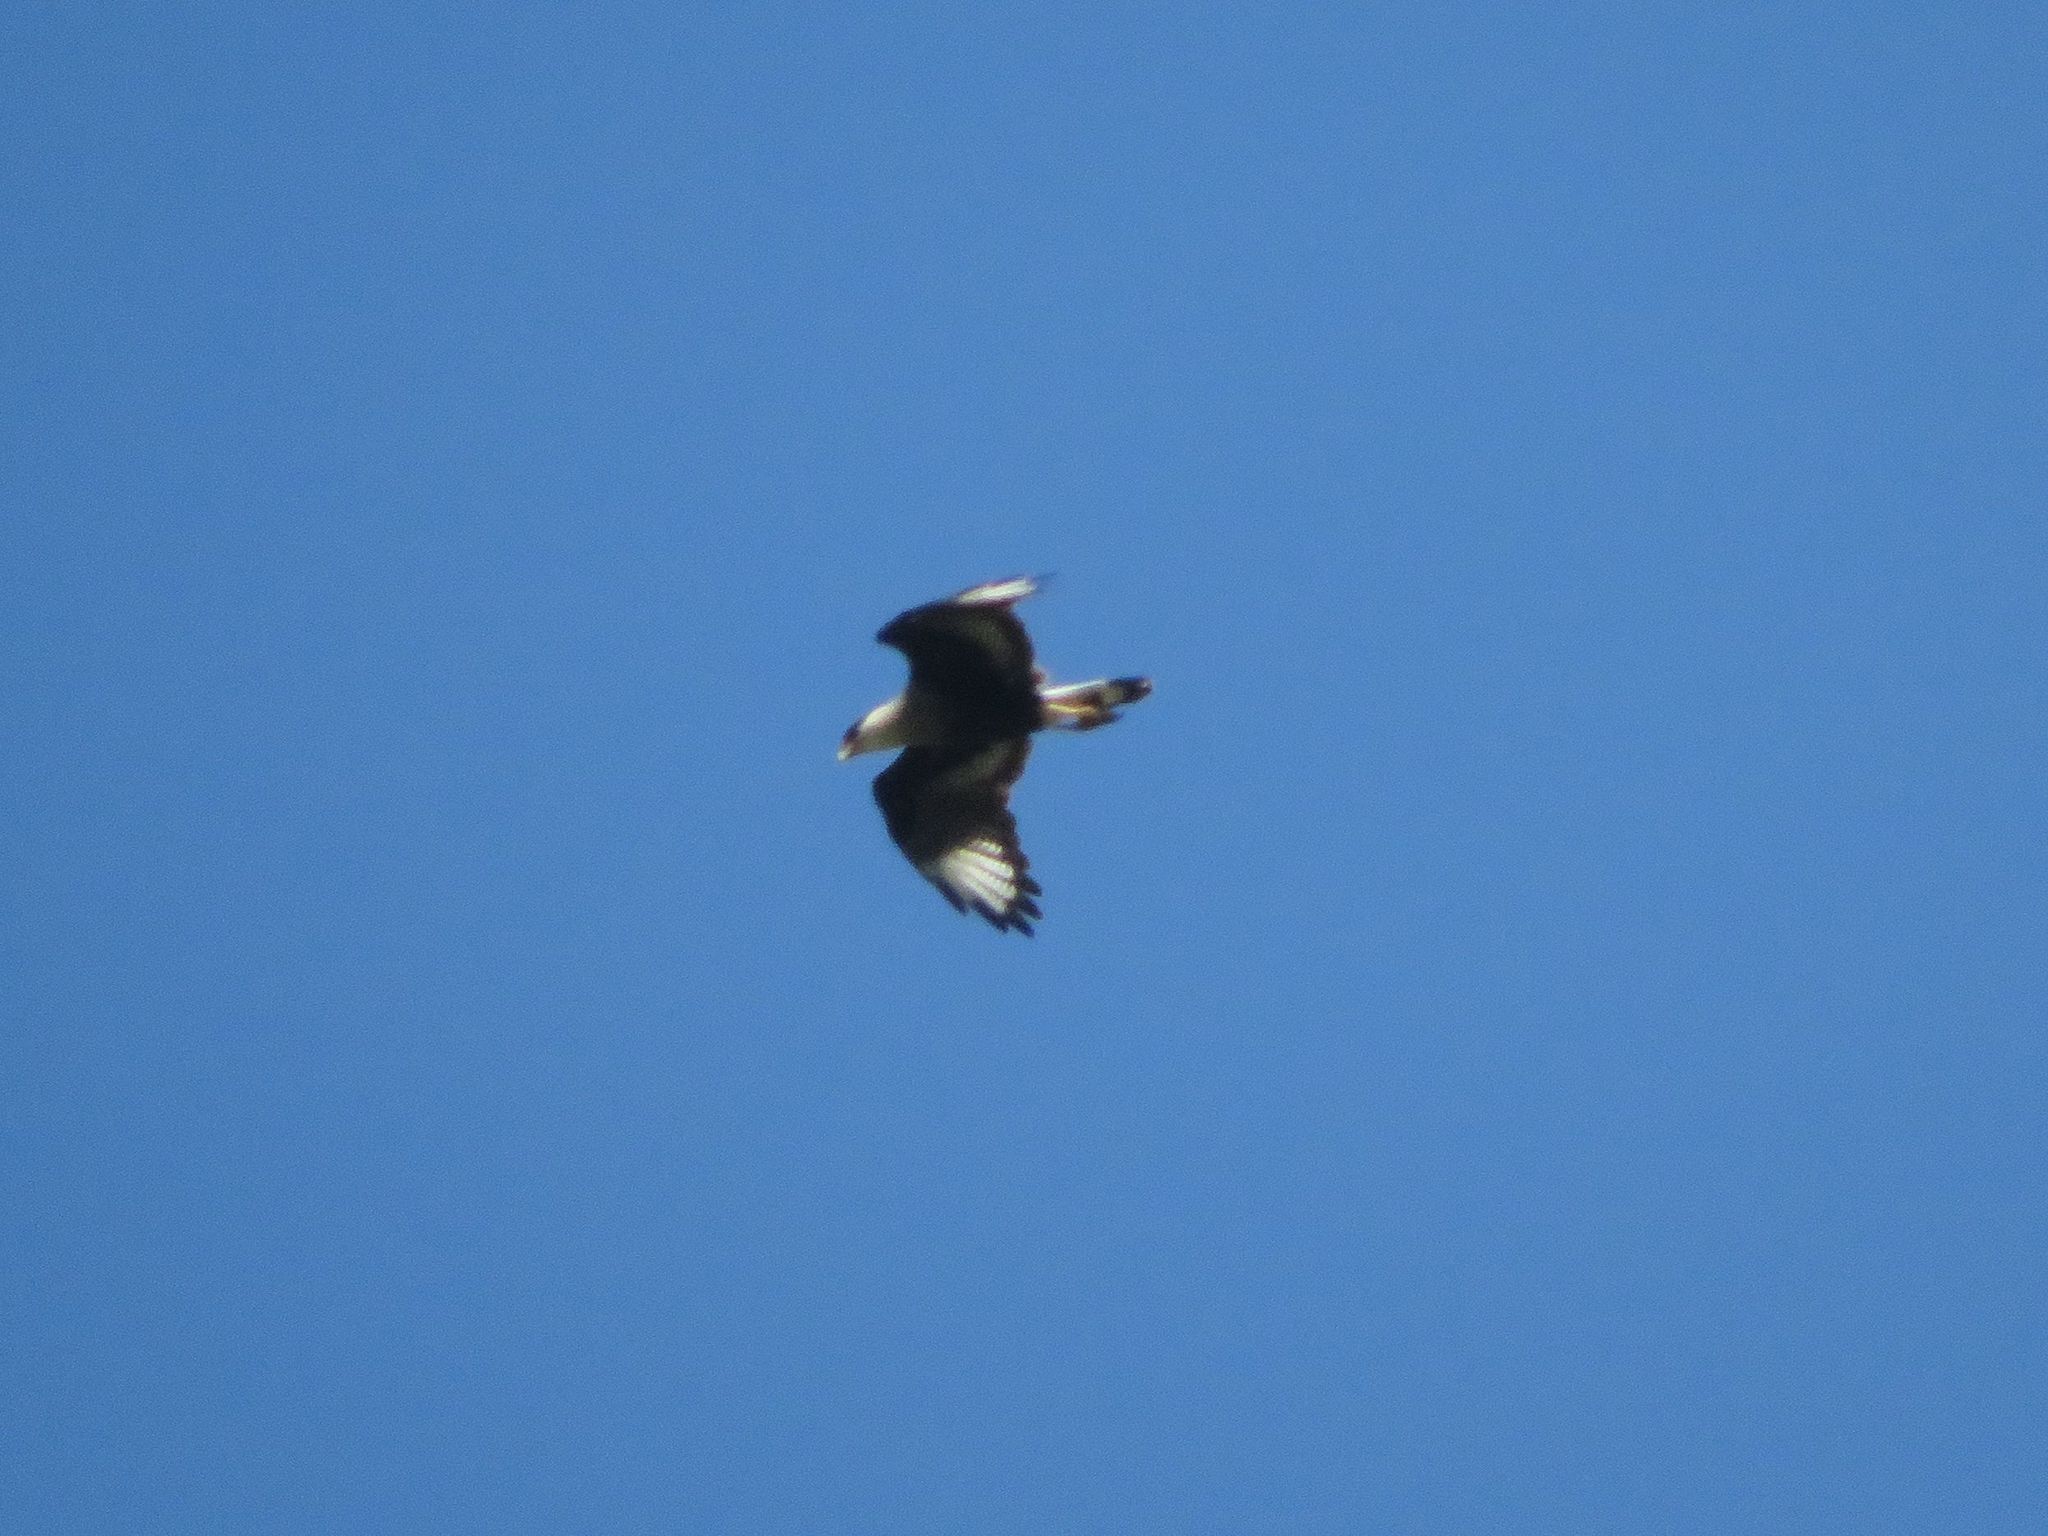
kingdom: Animalia
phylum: Chordata
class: Aves
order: Falconiformes
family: Falconidae
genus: Caracara
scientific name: Caracara plancus
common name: Southern caracara
